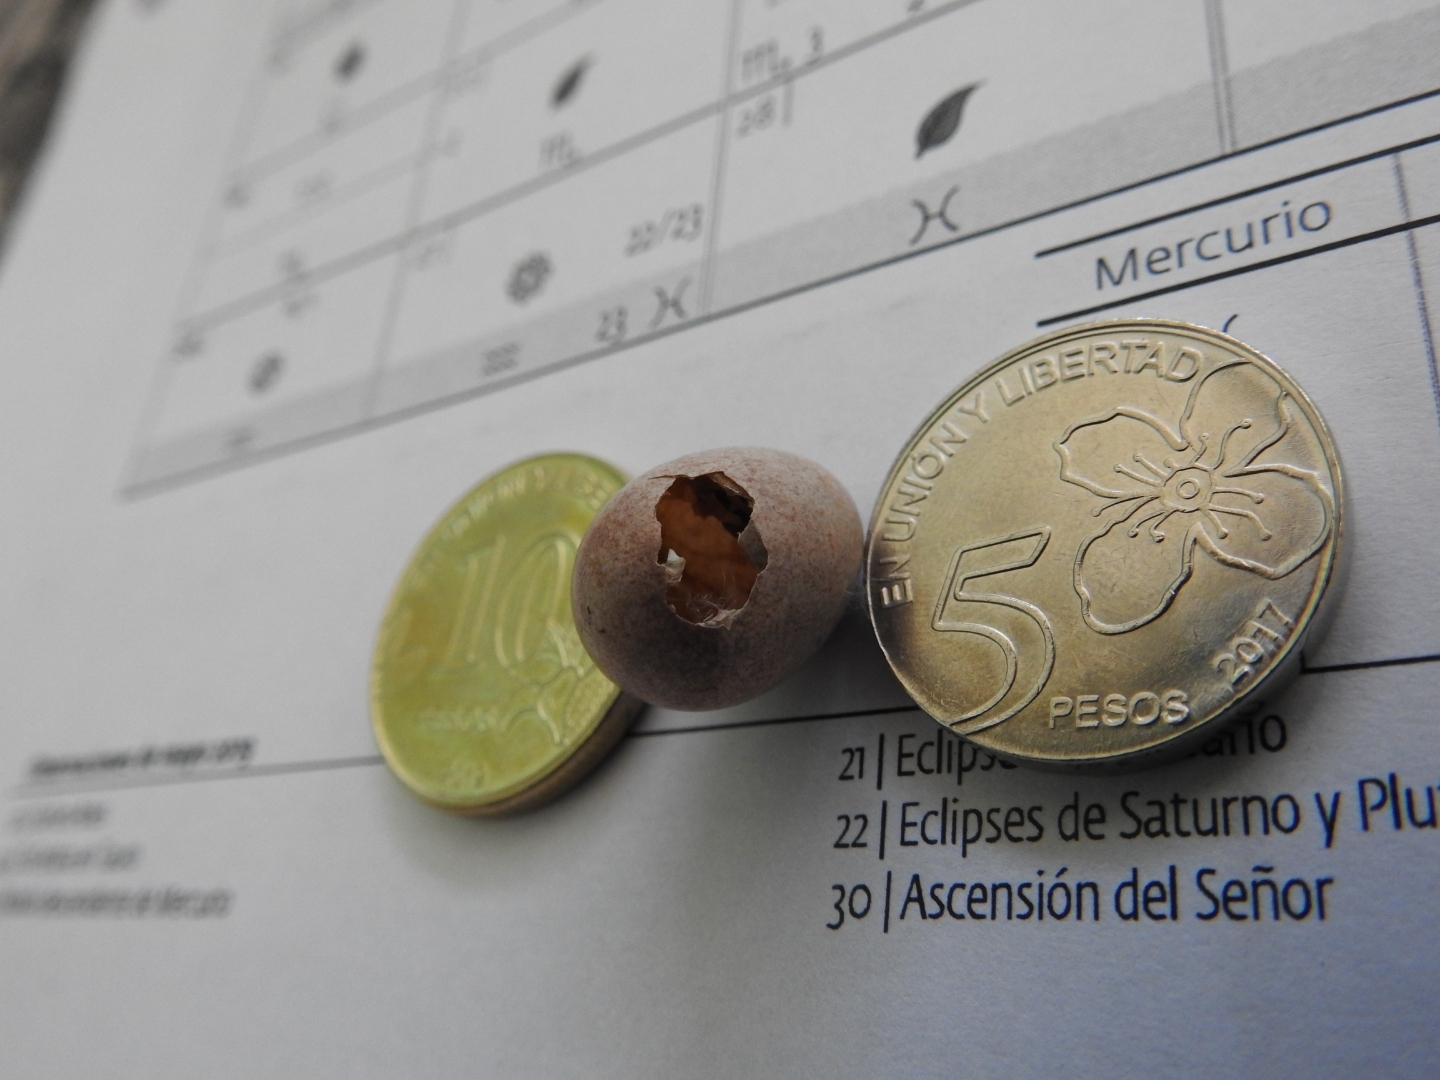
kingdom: Animalia
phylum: Chordata
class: Aves
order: Passeriformes
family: Troglodytidae
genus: Troglodytes
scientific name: Troglodytes aedon
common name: House wren
